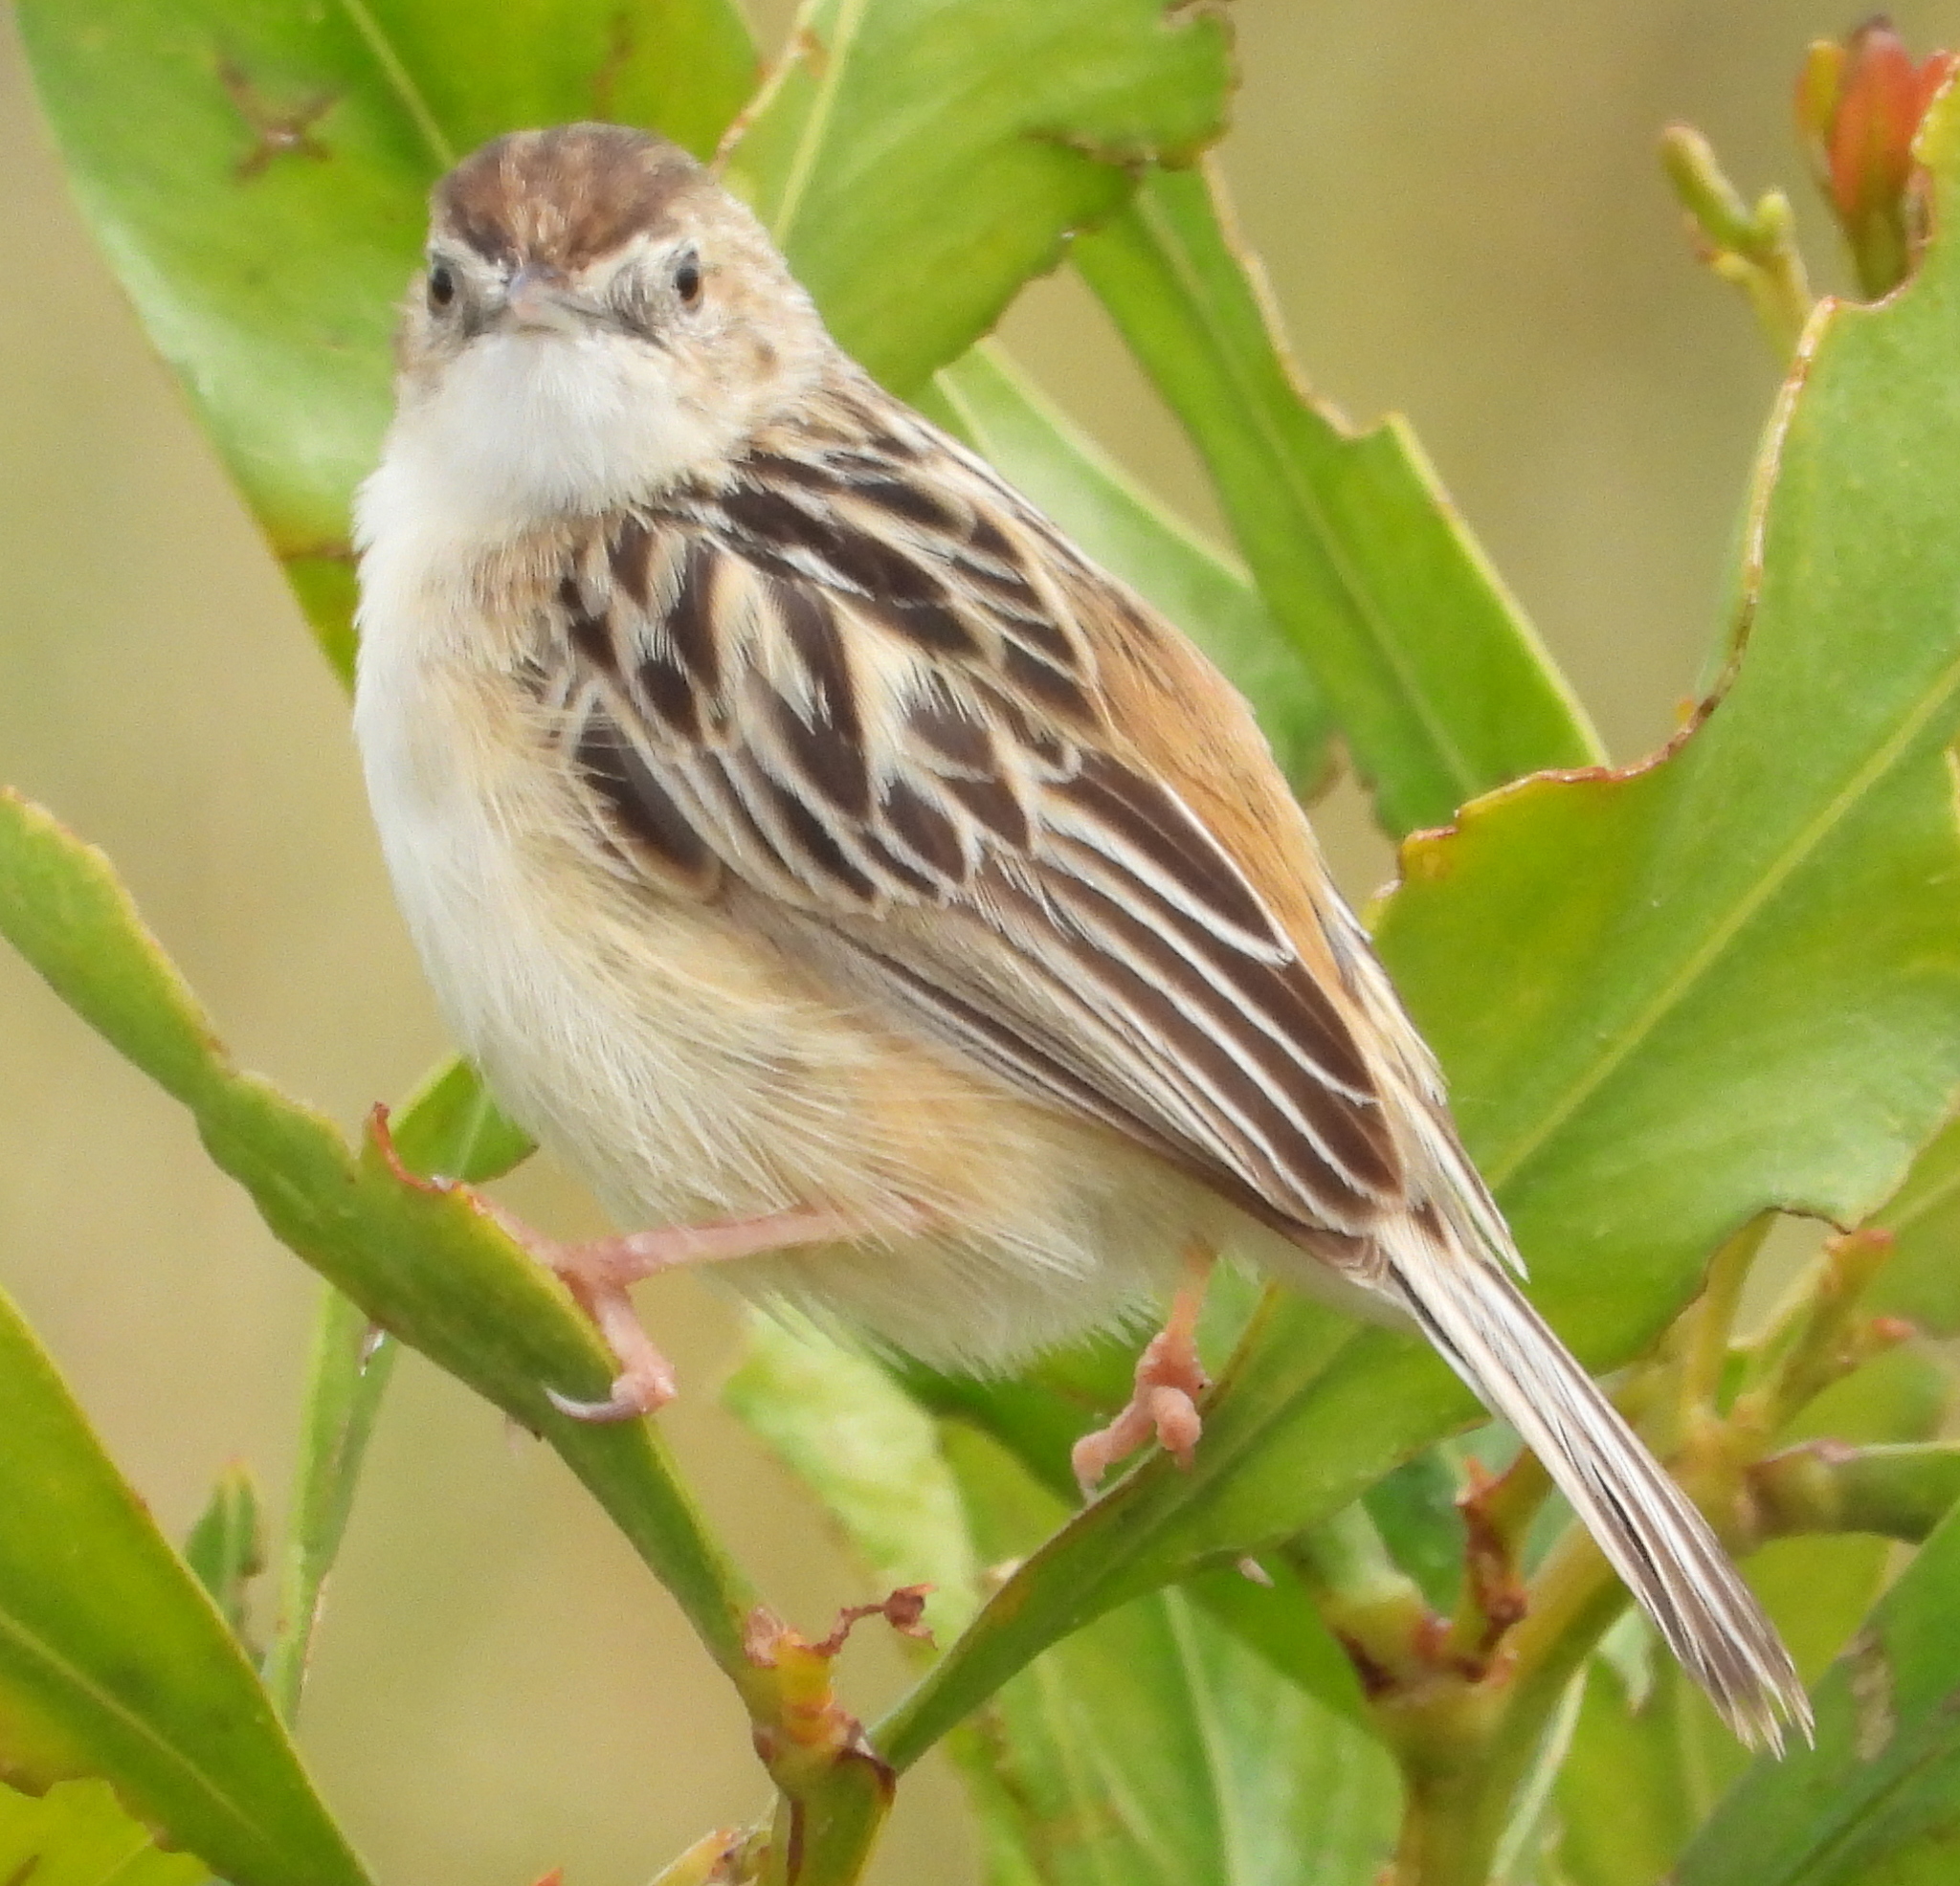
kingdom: Animalia
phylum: Chordata
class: Aves
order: Passeriformes
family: Cisticolidae
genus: Cisticola
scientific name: Cisticola juncidis
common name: Zitting cisticola
